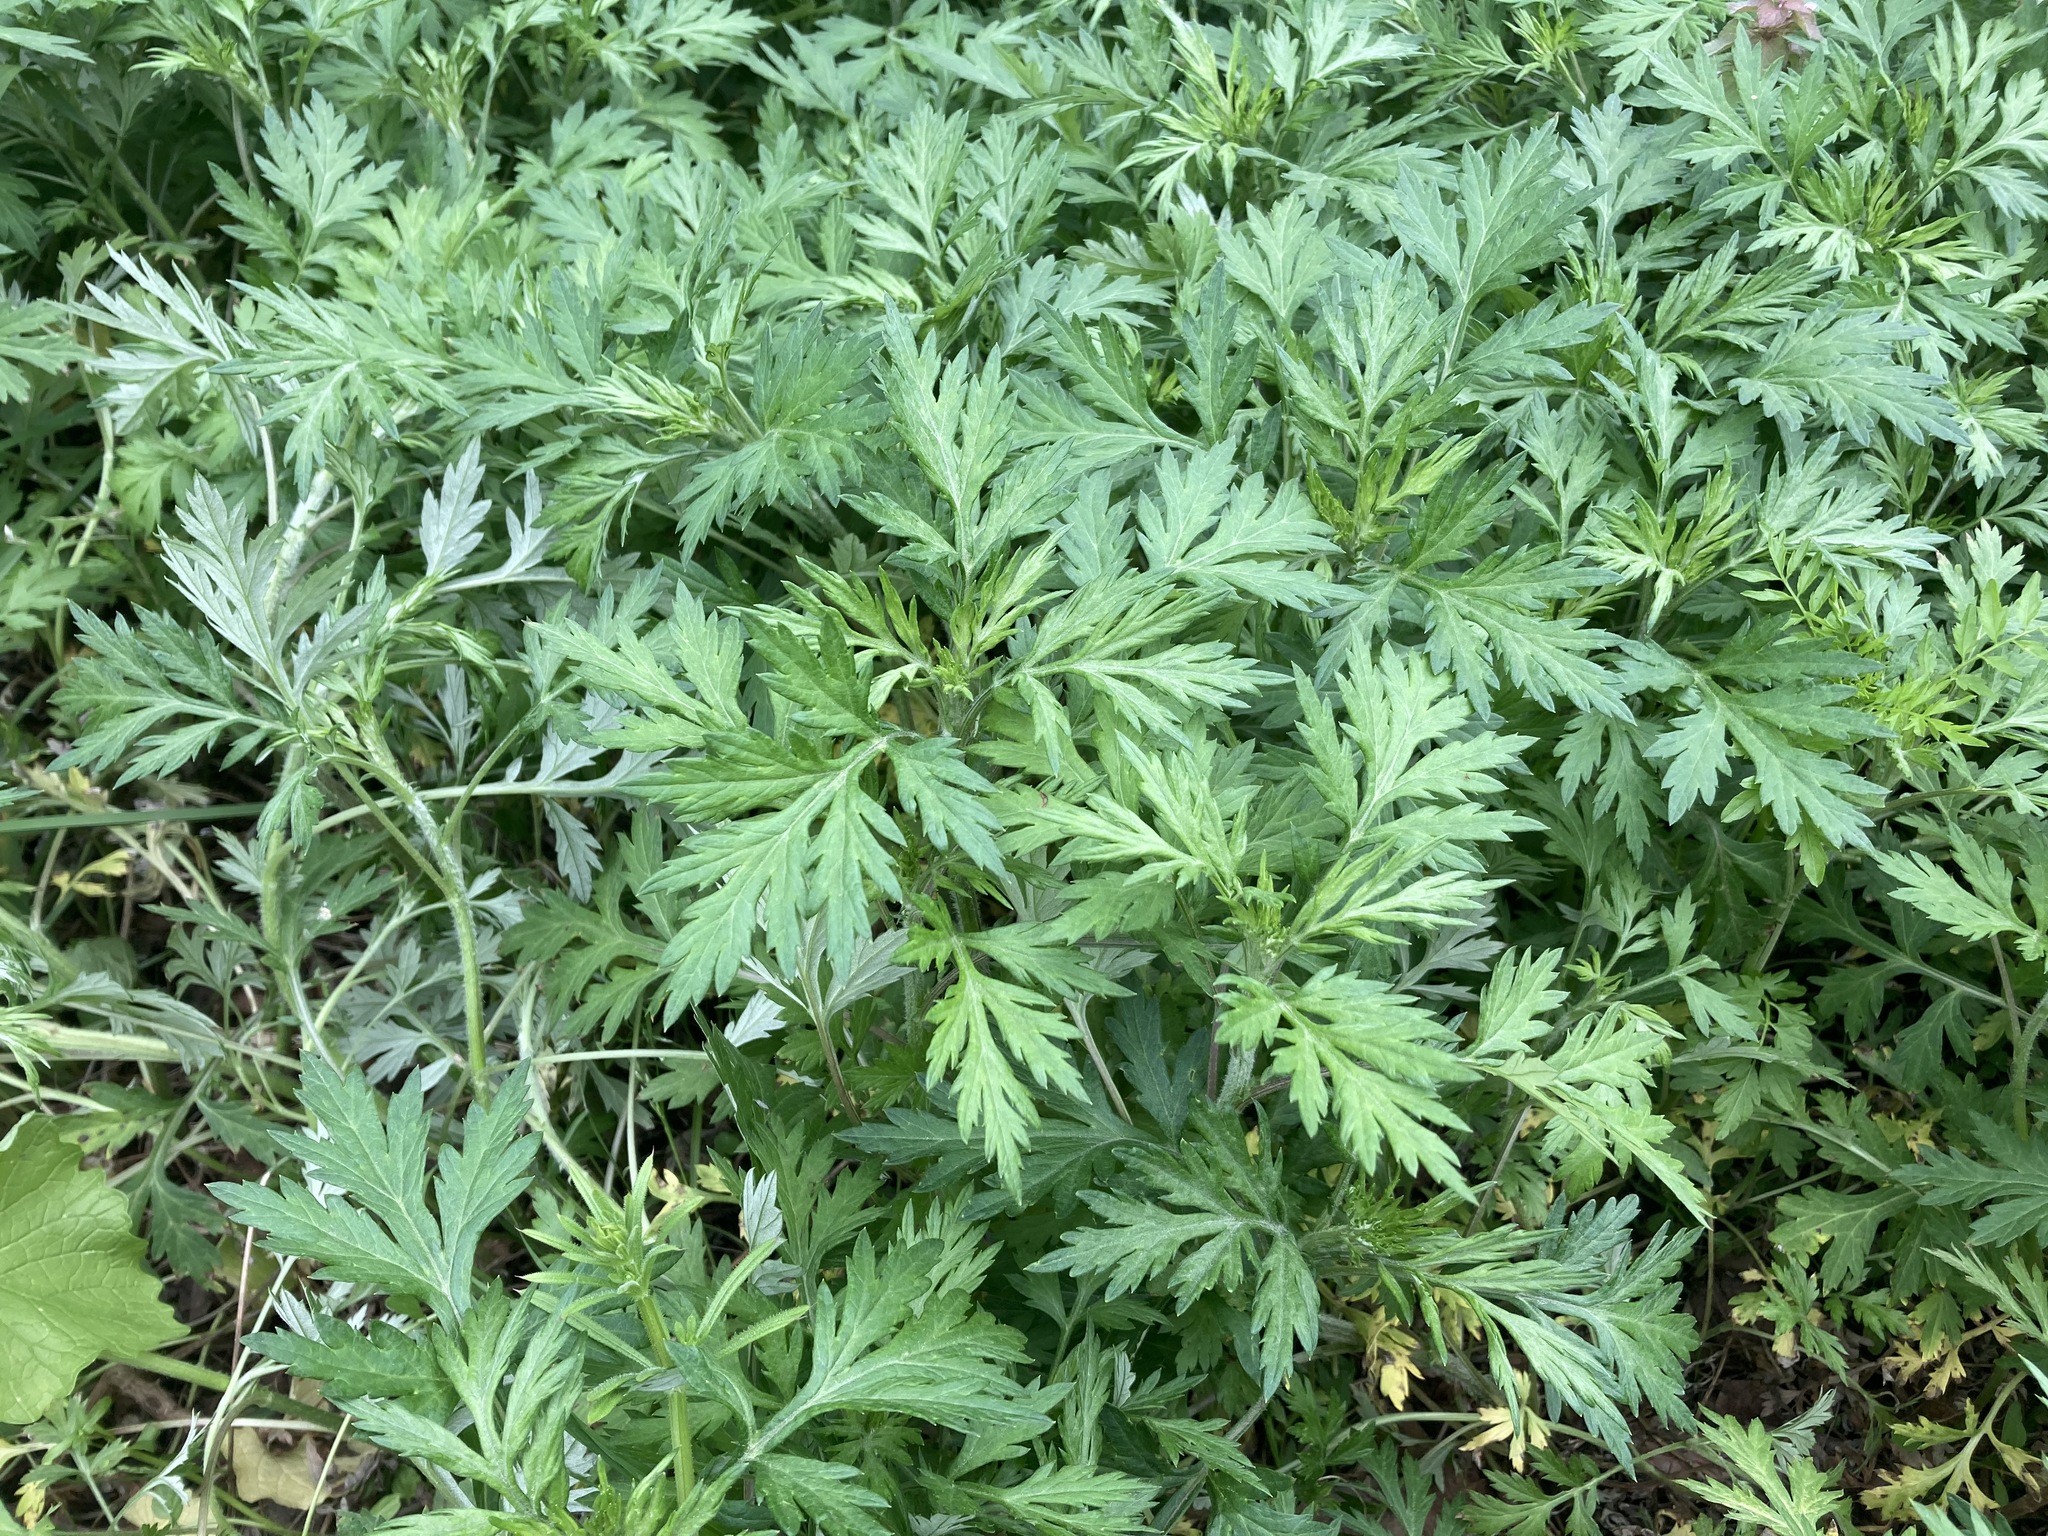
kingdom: Plantae
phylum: Tracheophyta
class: Magnoliopsida
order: Asterales
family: Asteraceae
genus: Artemisia
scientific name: Artemisia vulgaris
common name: Mugwort
